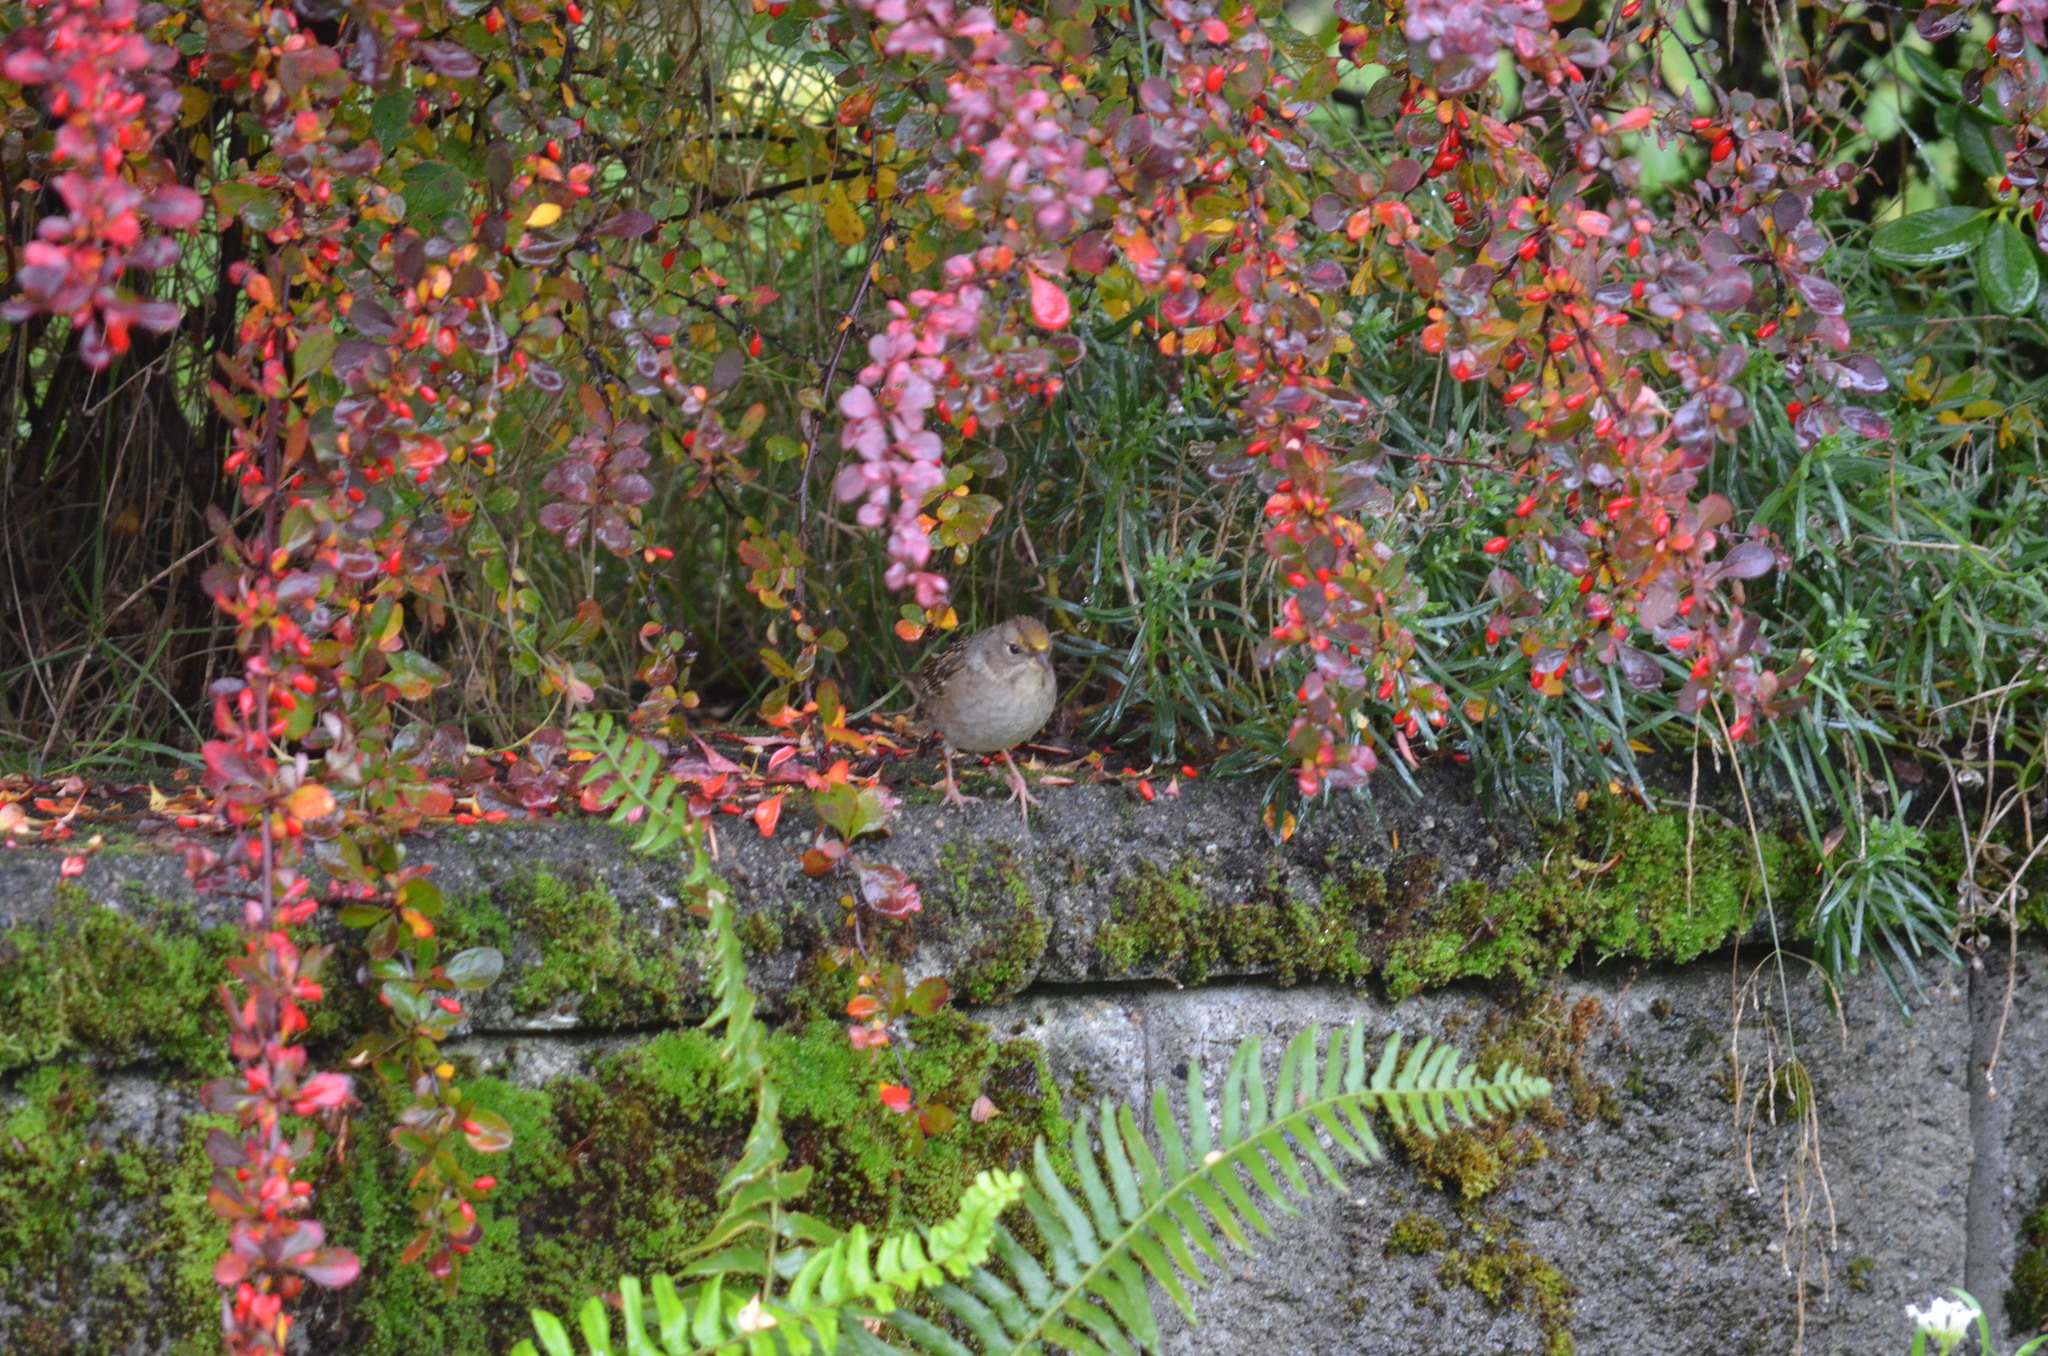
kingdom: Animalia
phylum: Chordata
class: Aves
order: Passeriformes
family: Passerellidae
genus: Zonotrichia
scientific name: Zonotrichia atricapilla
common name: Golden-crowned sparrow
